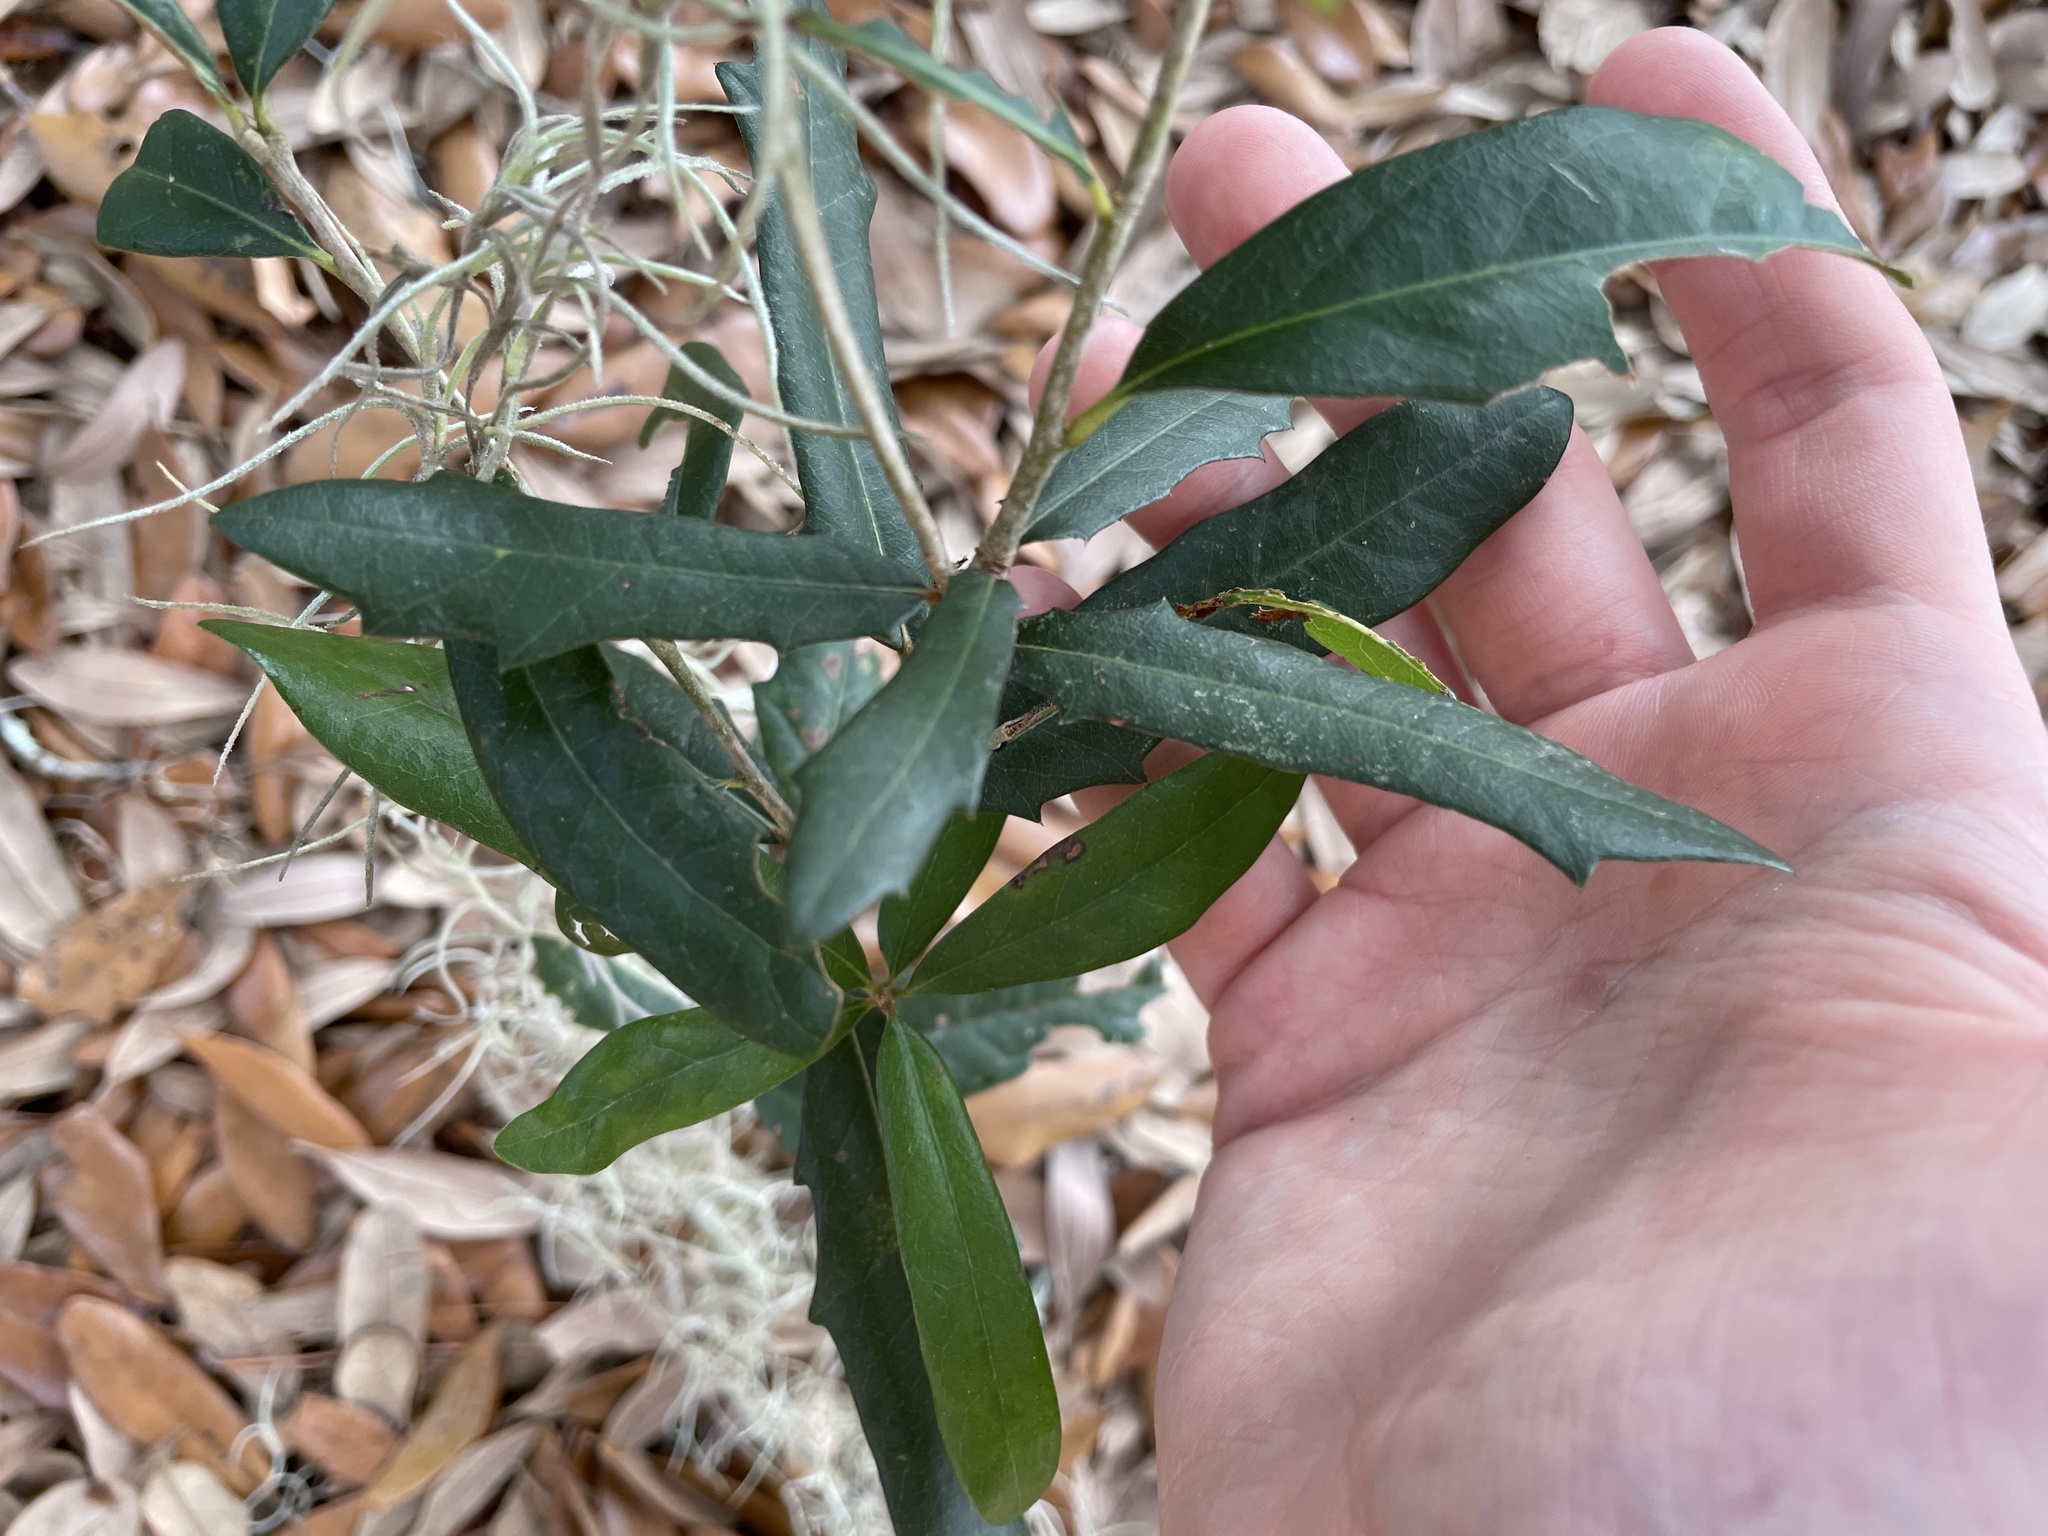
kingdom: Plantae
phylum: Tracheophyta
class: Magnoliopsida
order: Fagales
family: Fagaceae
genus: Quercus
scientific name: Quercus virginiana
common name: Southern live oak
